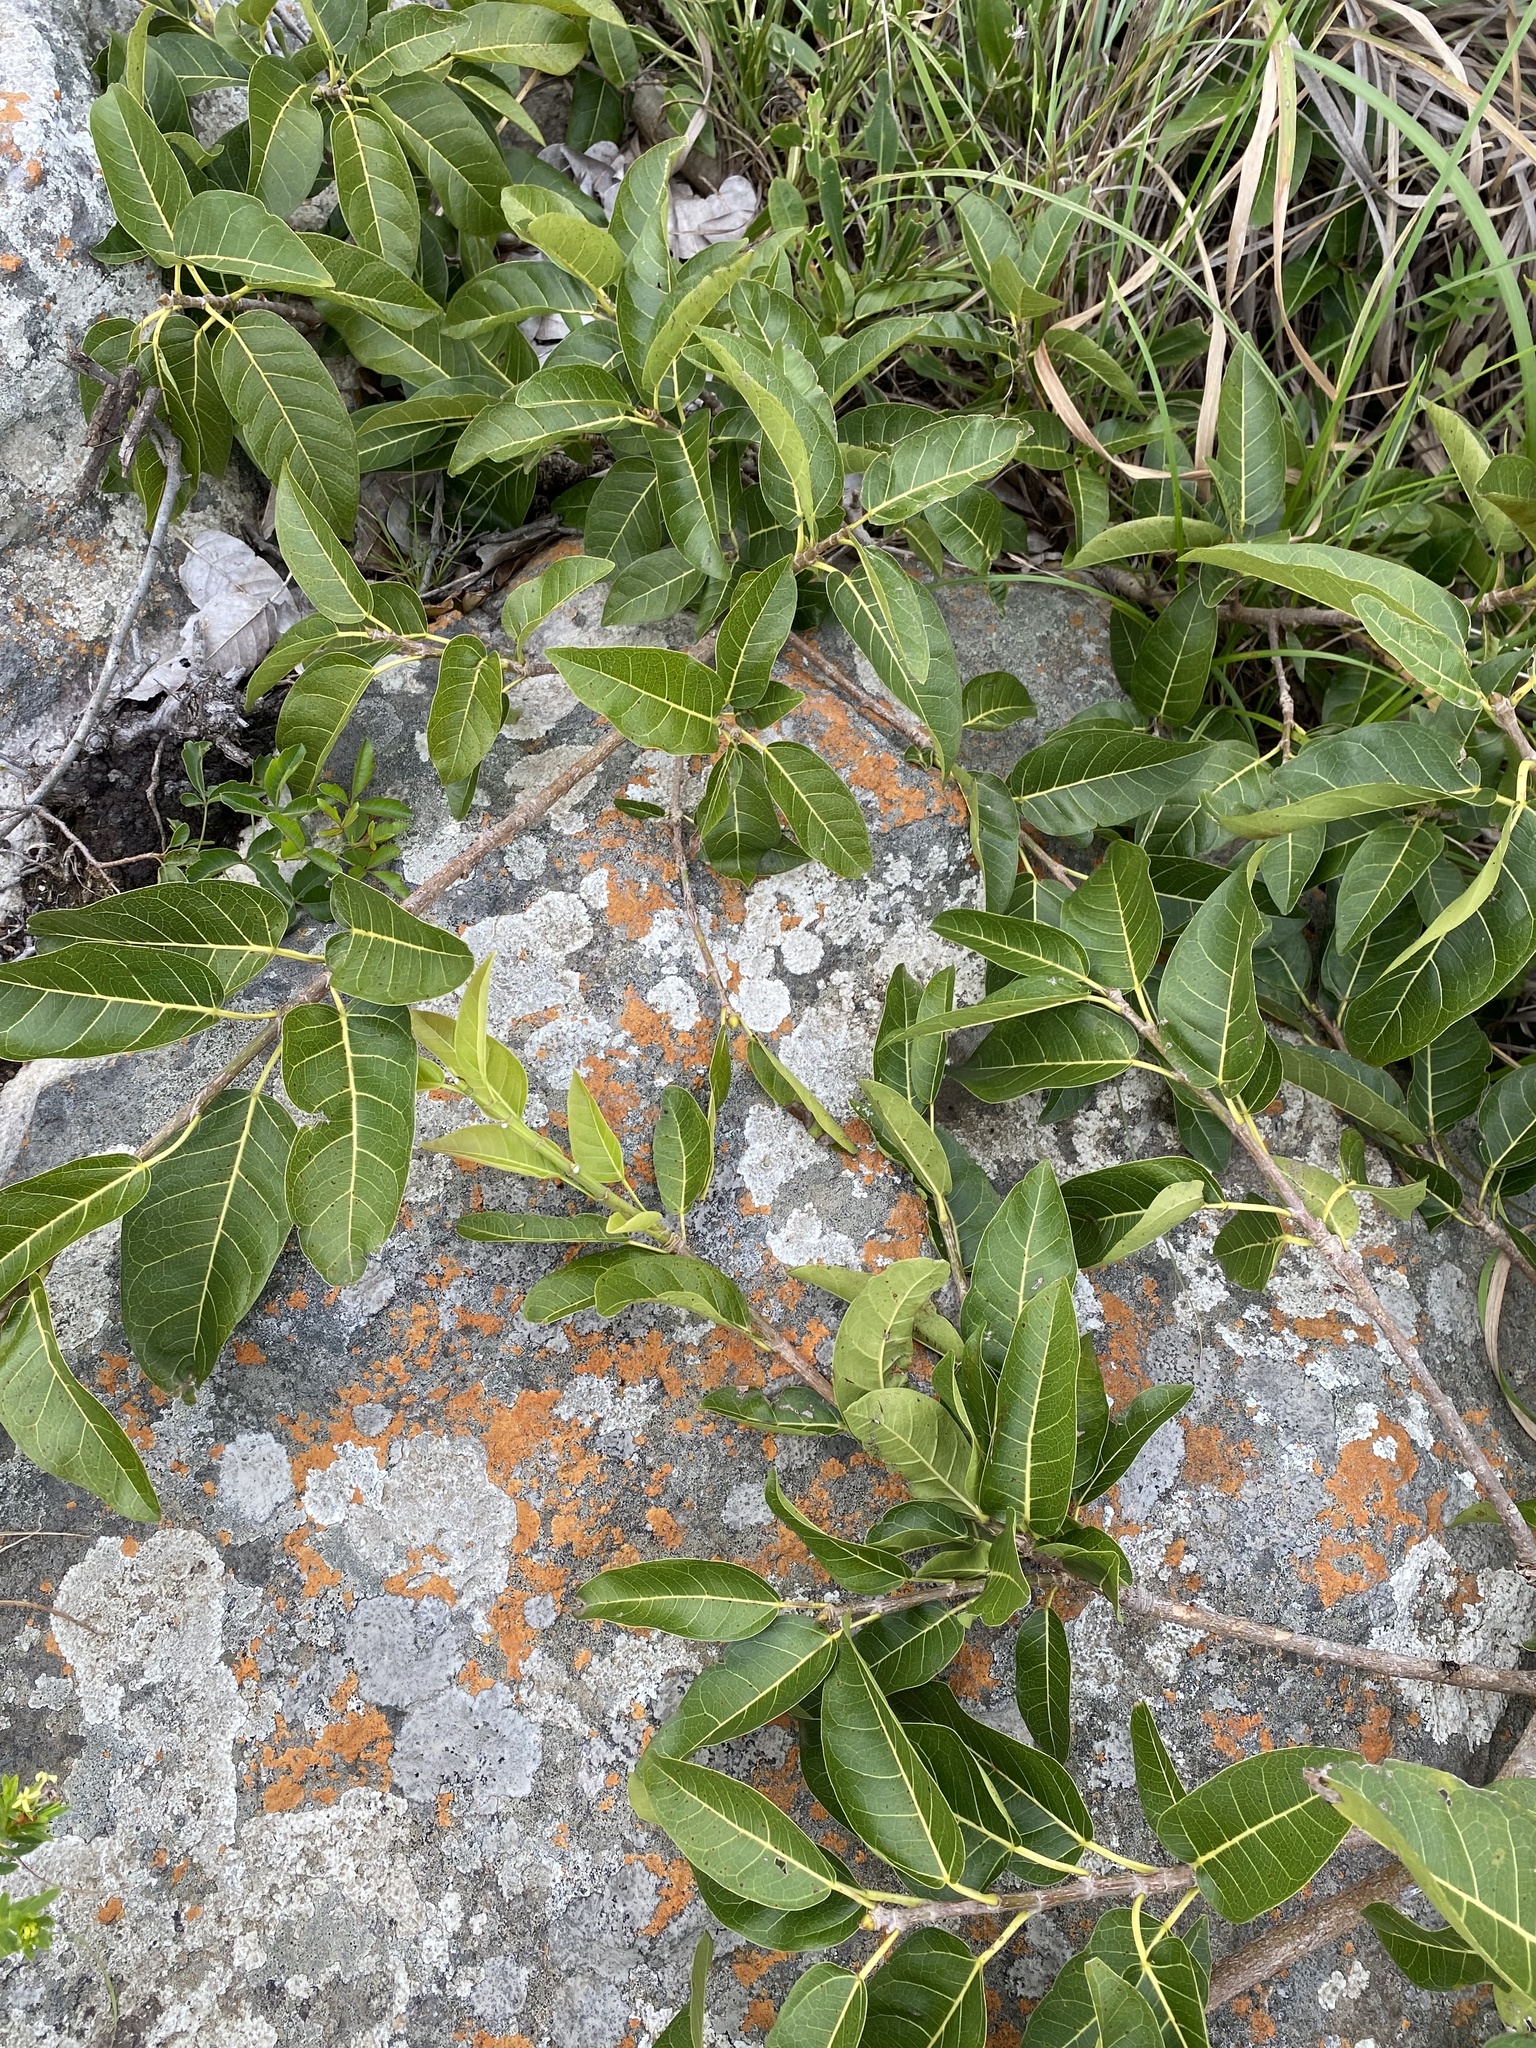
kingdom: Plantae
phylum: Tracheophyta
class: Magnoliopsida
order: Rosales
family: Moraceae
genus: Ficus
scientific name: Ficus ingens
